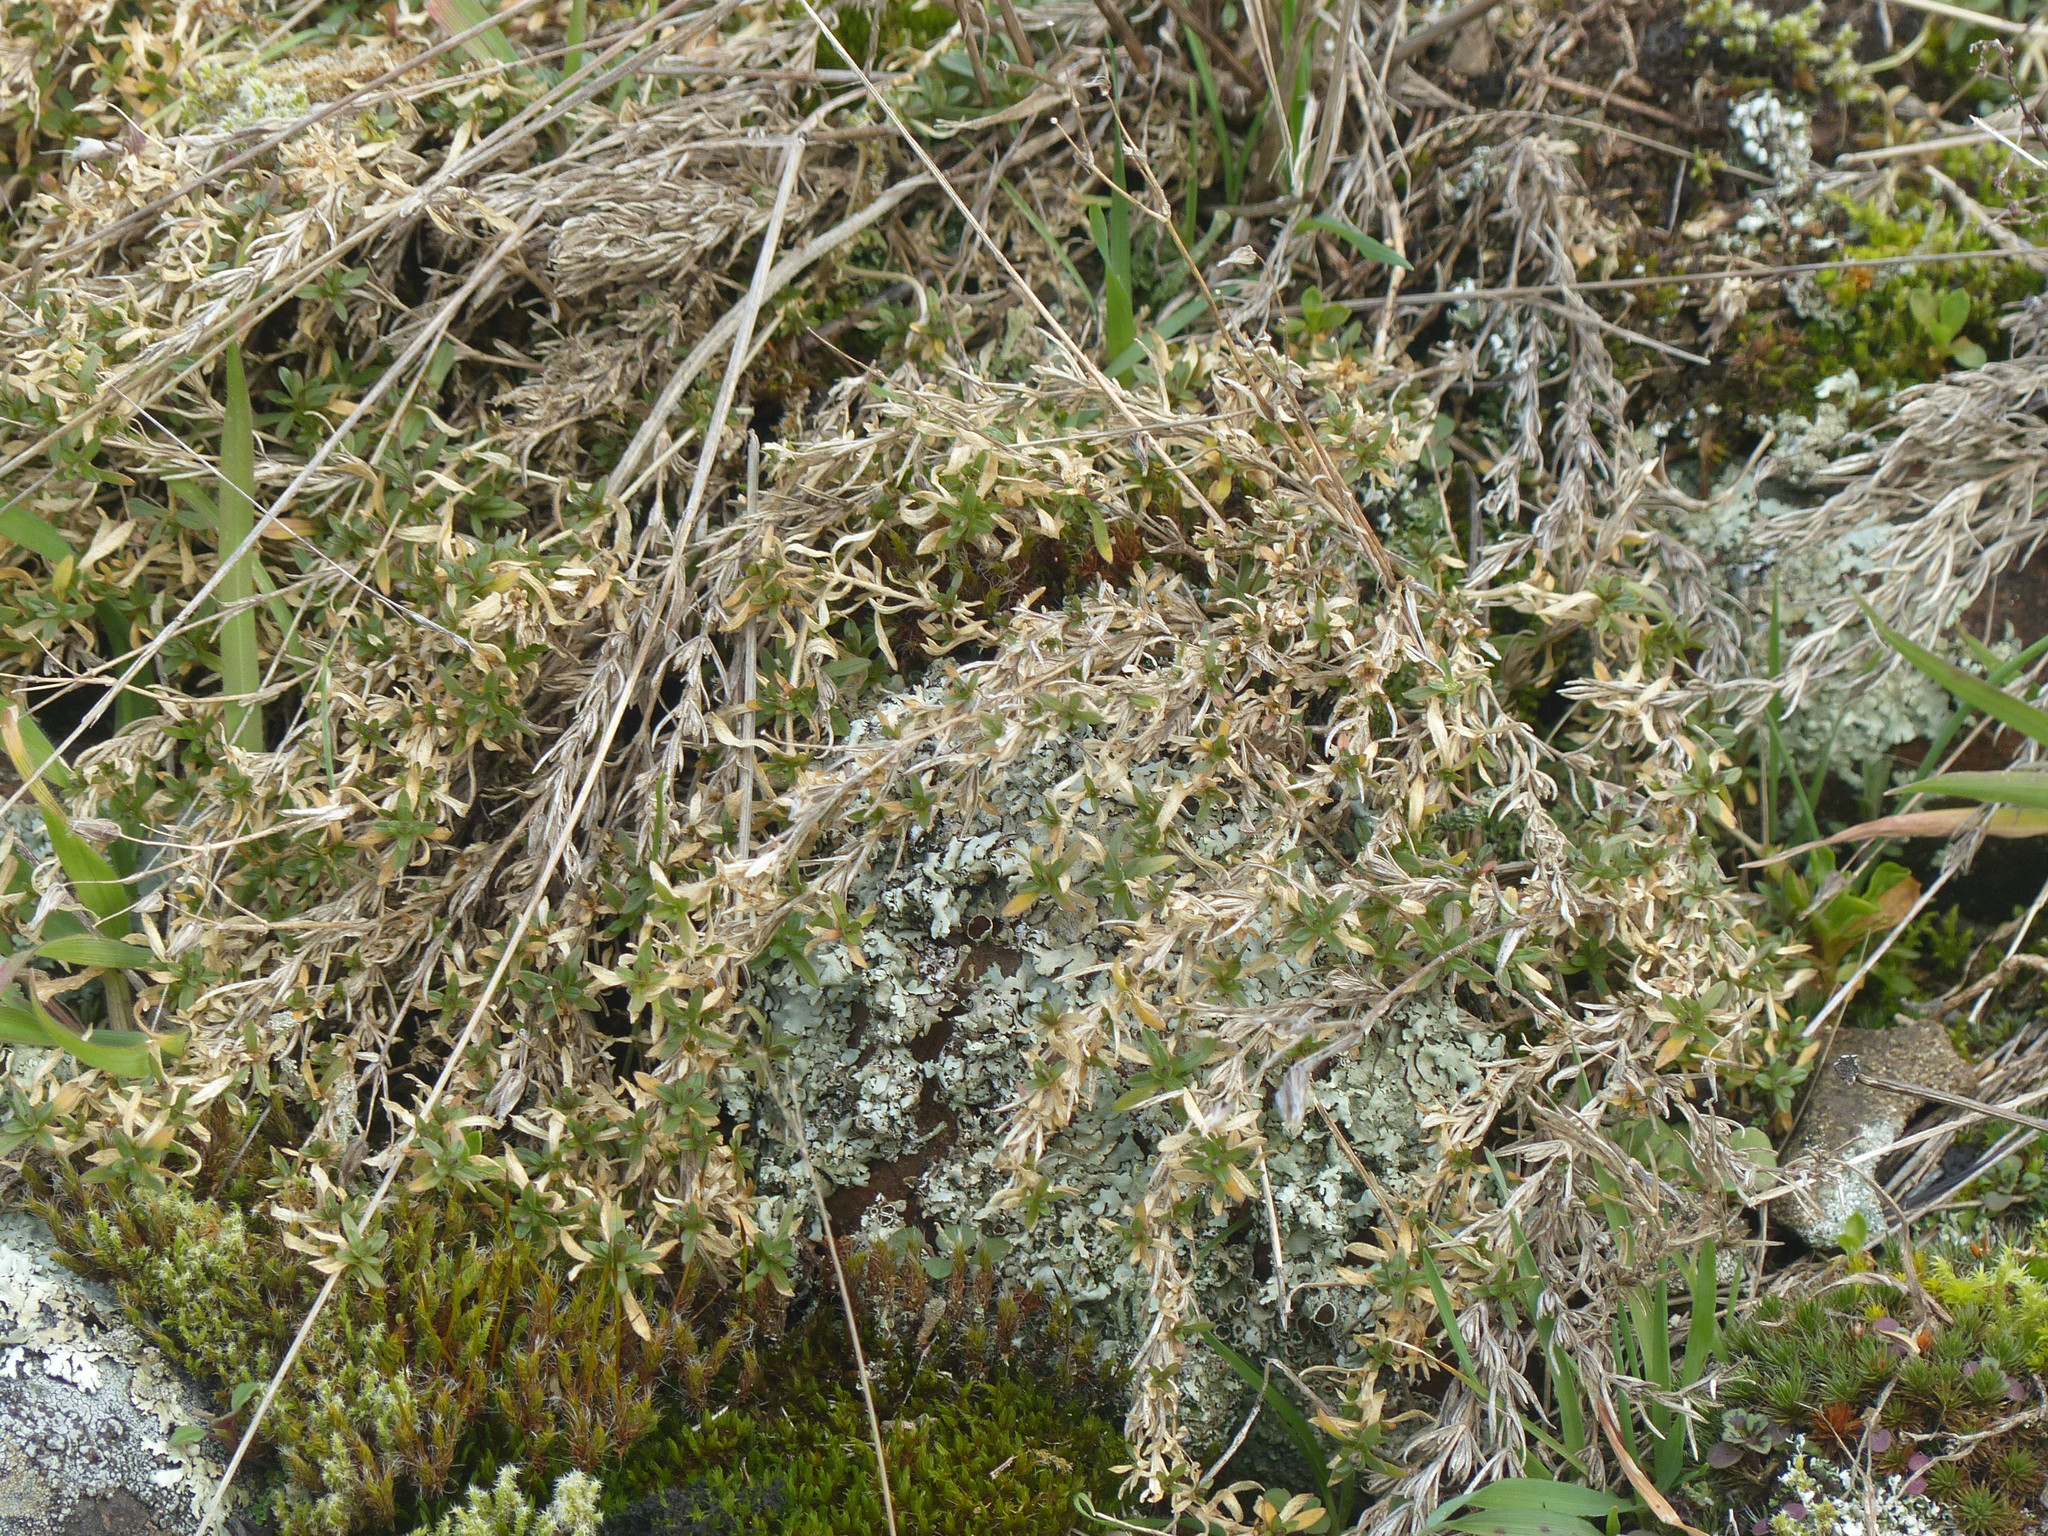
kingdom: Plantae
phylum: Tracheophyta
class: Magnoliopsida
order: Caryophyllales
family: Caryophyllaceae
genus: Cerastium
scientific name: Cerastium arvense
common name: Field mouse-ear
